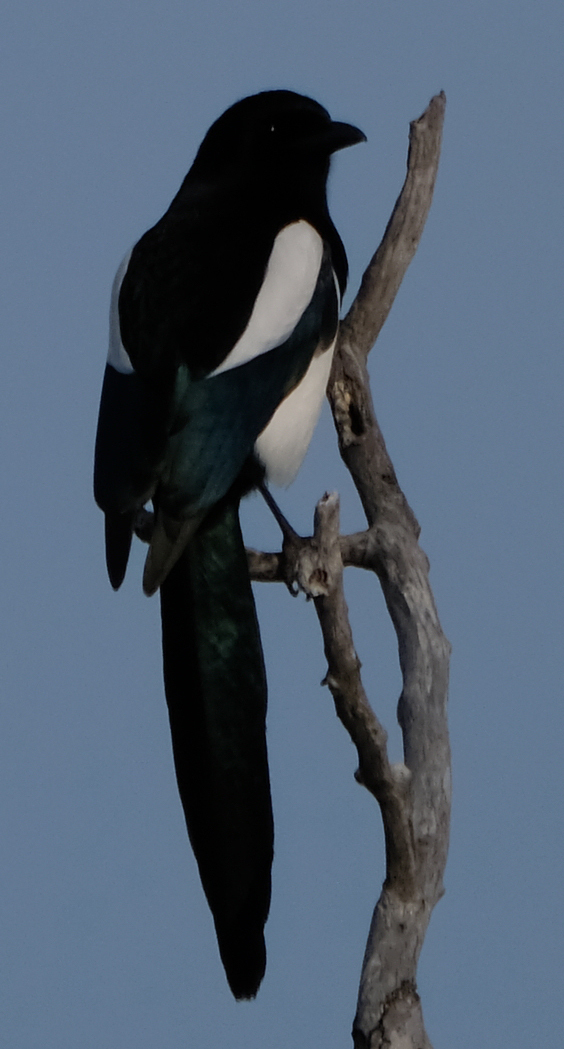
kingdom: Animalia
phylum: Chordata
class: Aves
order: Passeriformes
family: Corvidae
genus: Pica
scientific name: Pica hudsonia
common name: Black-billed magpie
